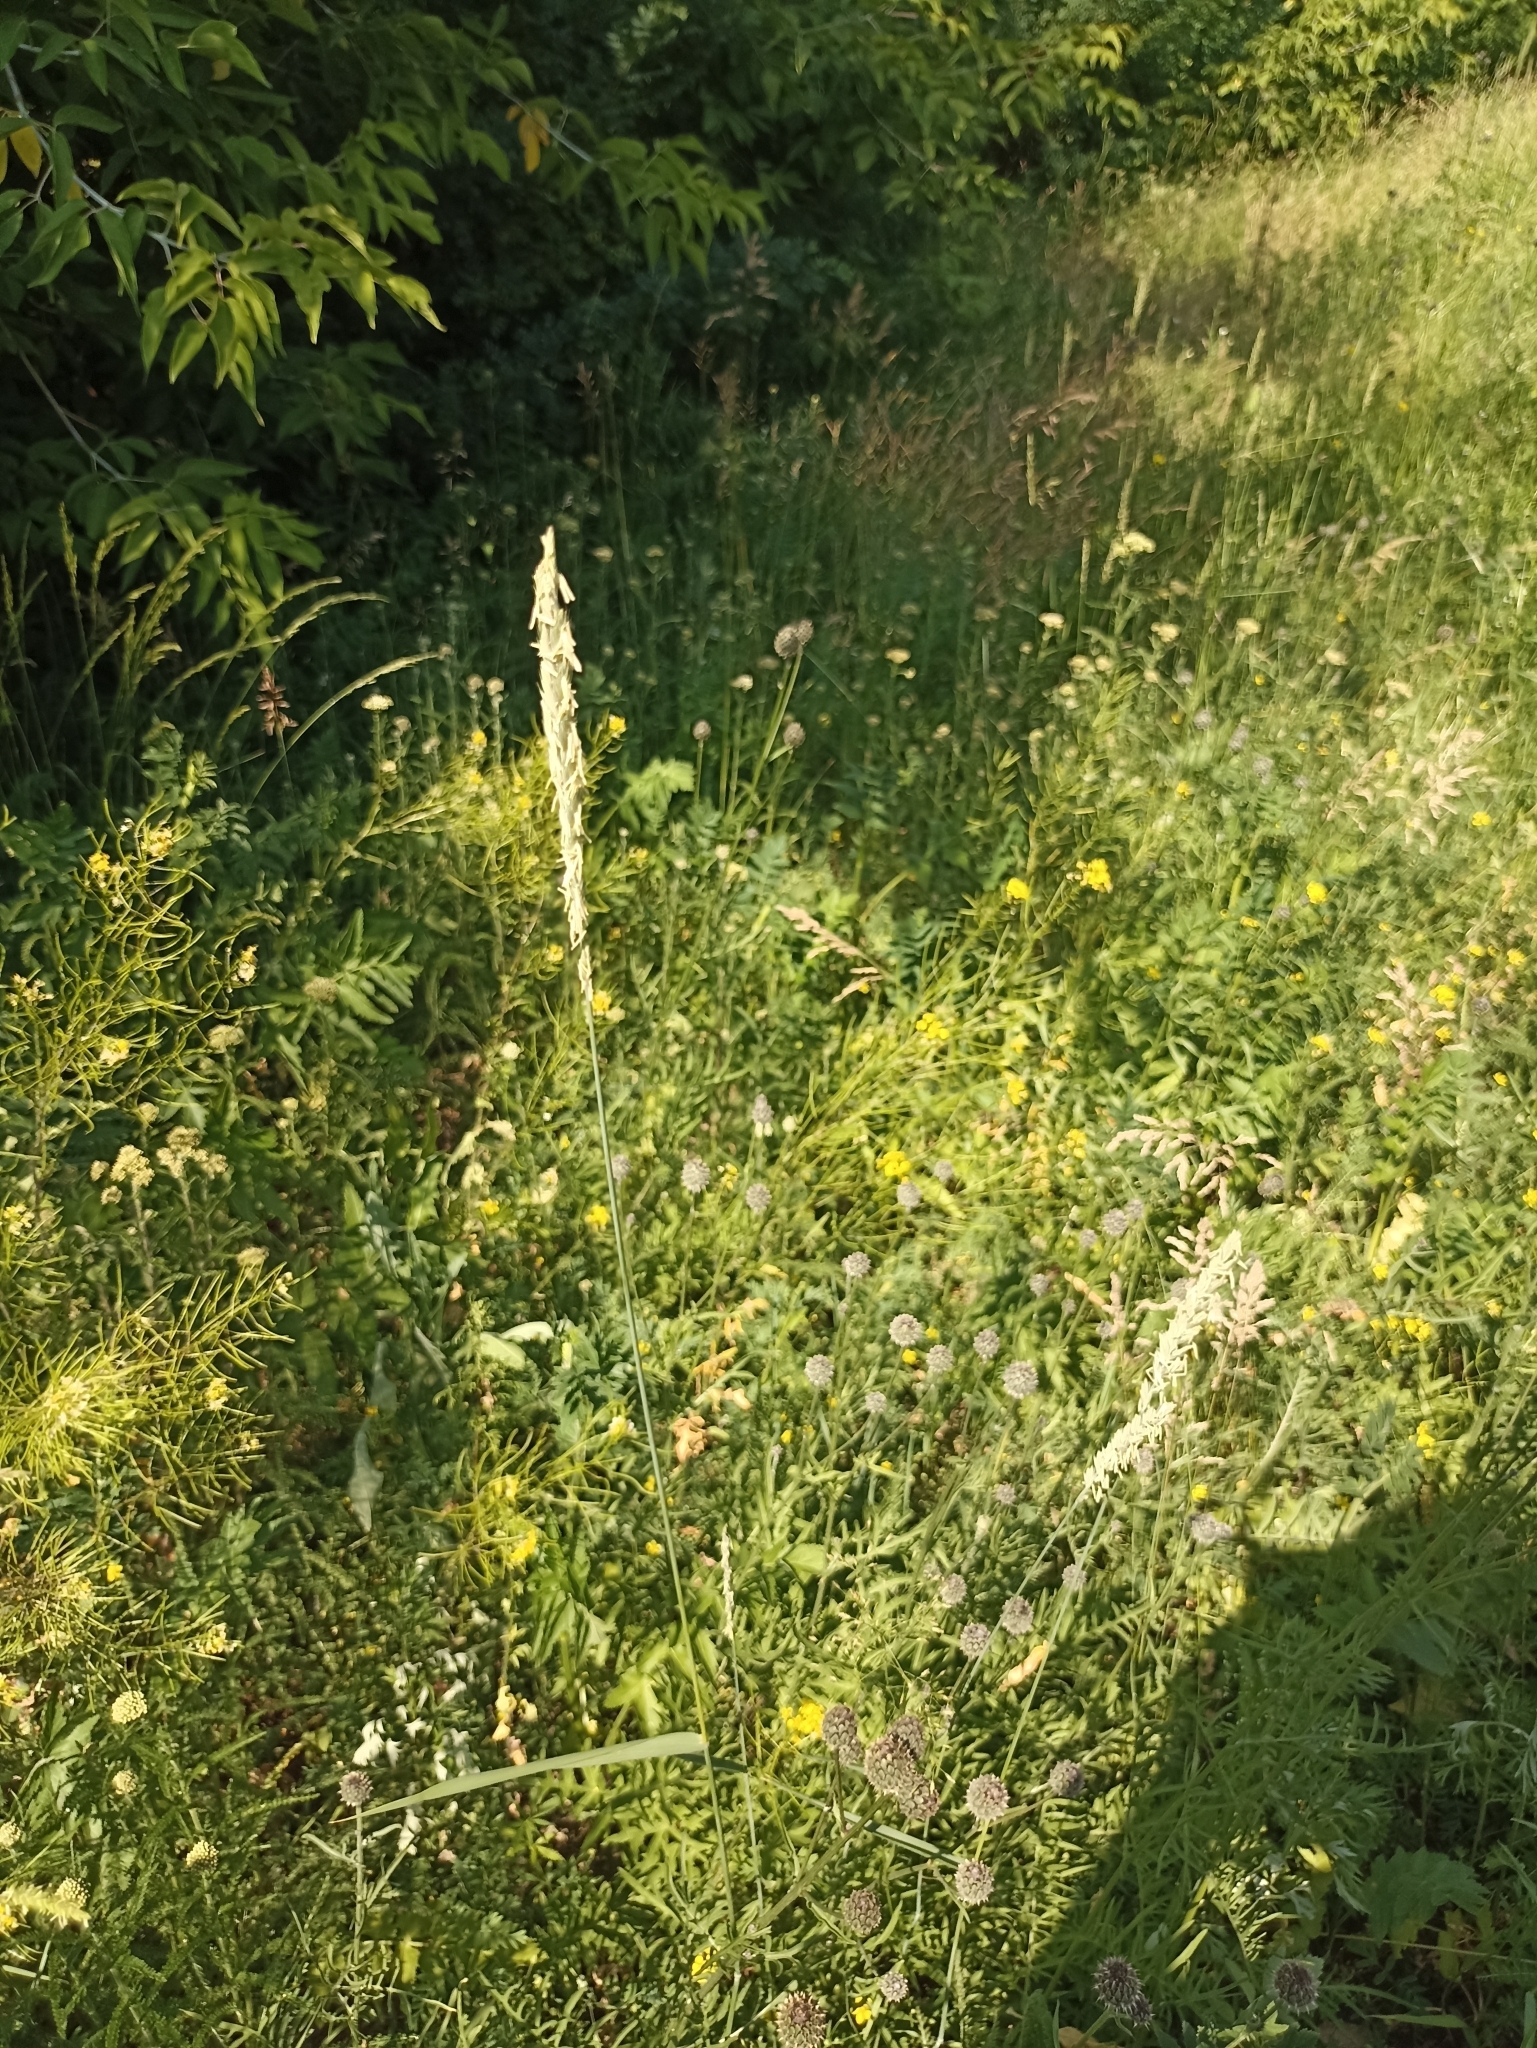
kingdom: Plantae
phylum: Tracheophyta
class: Liliopsida
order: Poales
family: Poaceae
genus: Elymus
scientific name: Elymus repens
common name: Quackgrass
